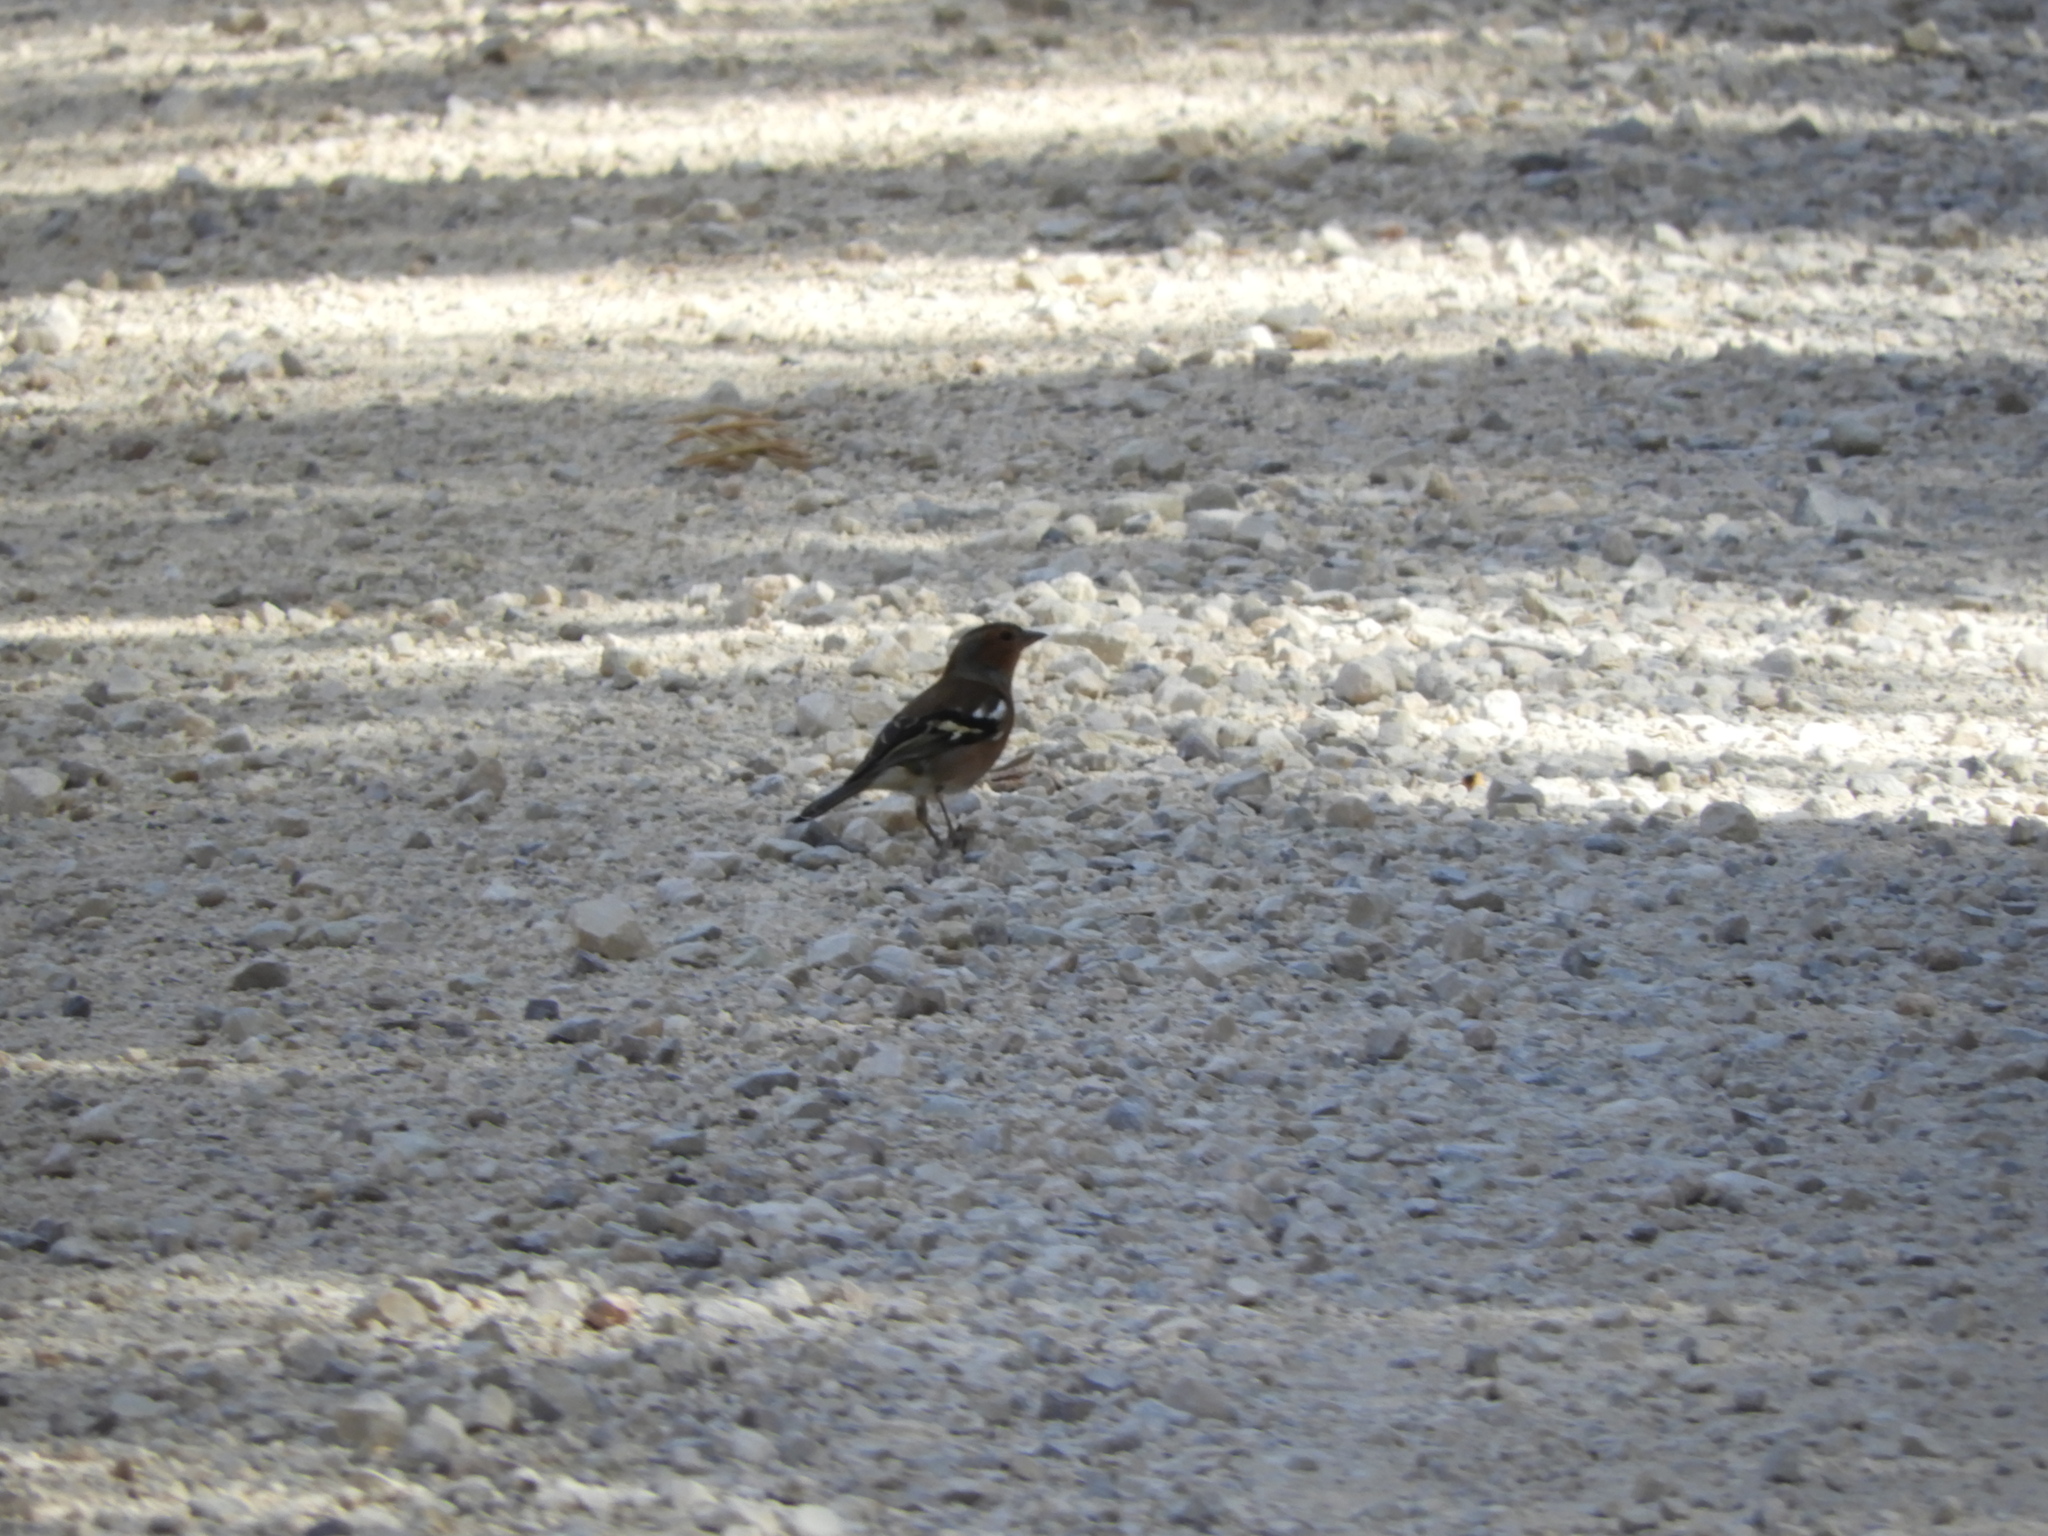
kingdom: Animalia
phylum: Chordata
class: Aves
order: Passeriformes
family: Fringillidae
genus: Fringilla
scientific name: Fringilla coelebs
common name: Common chaffinch
